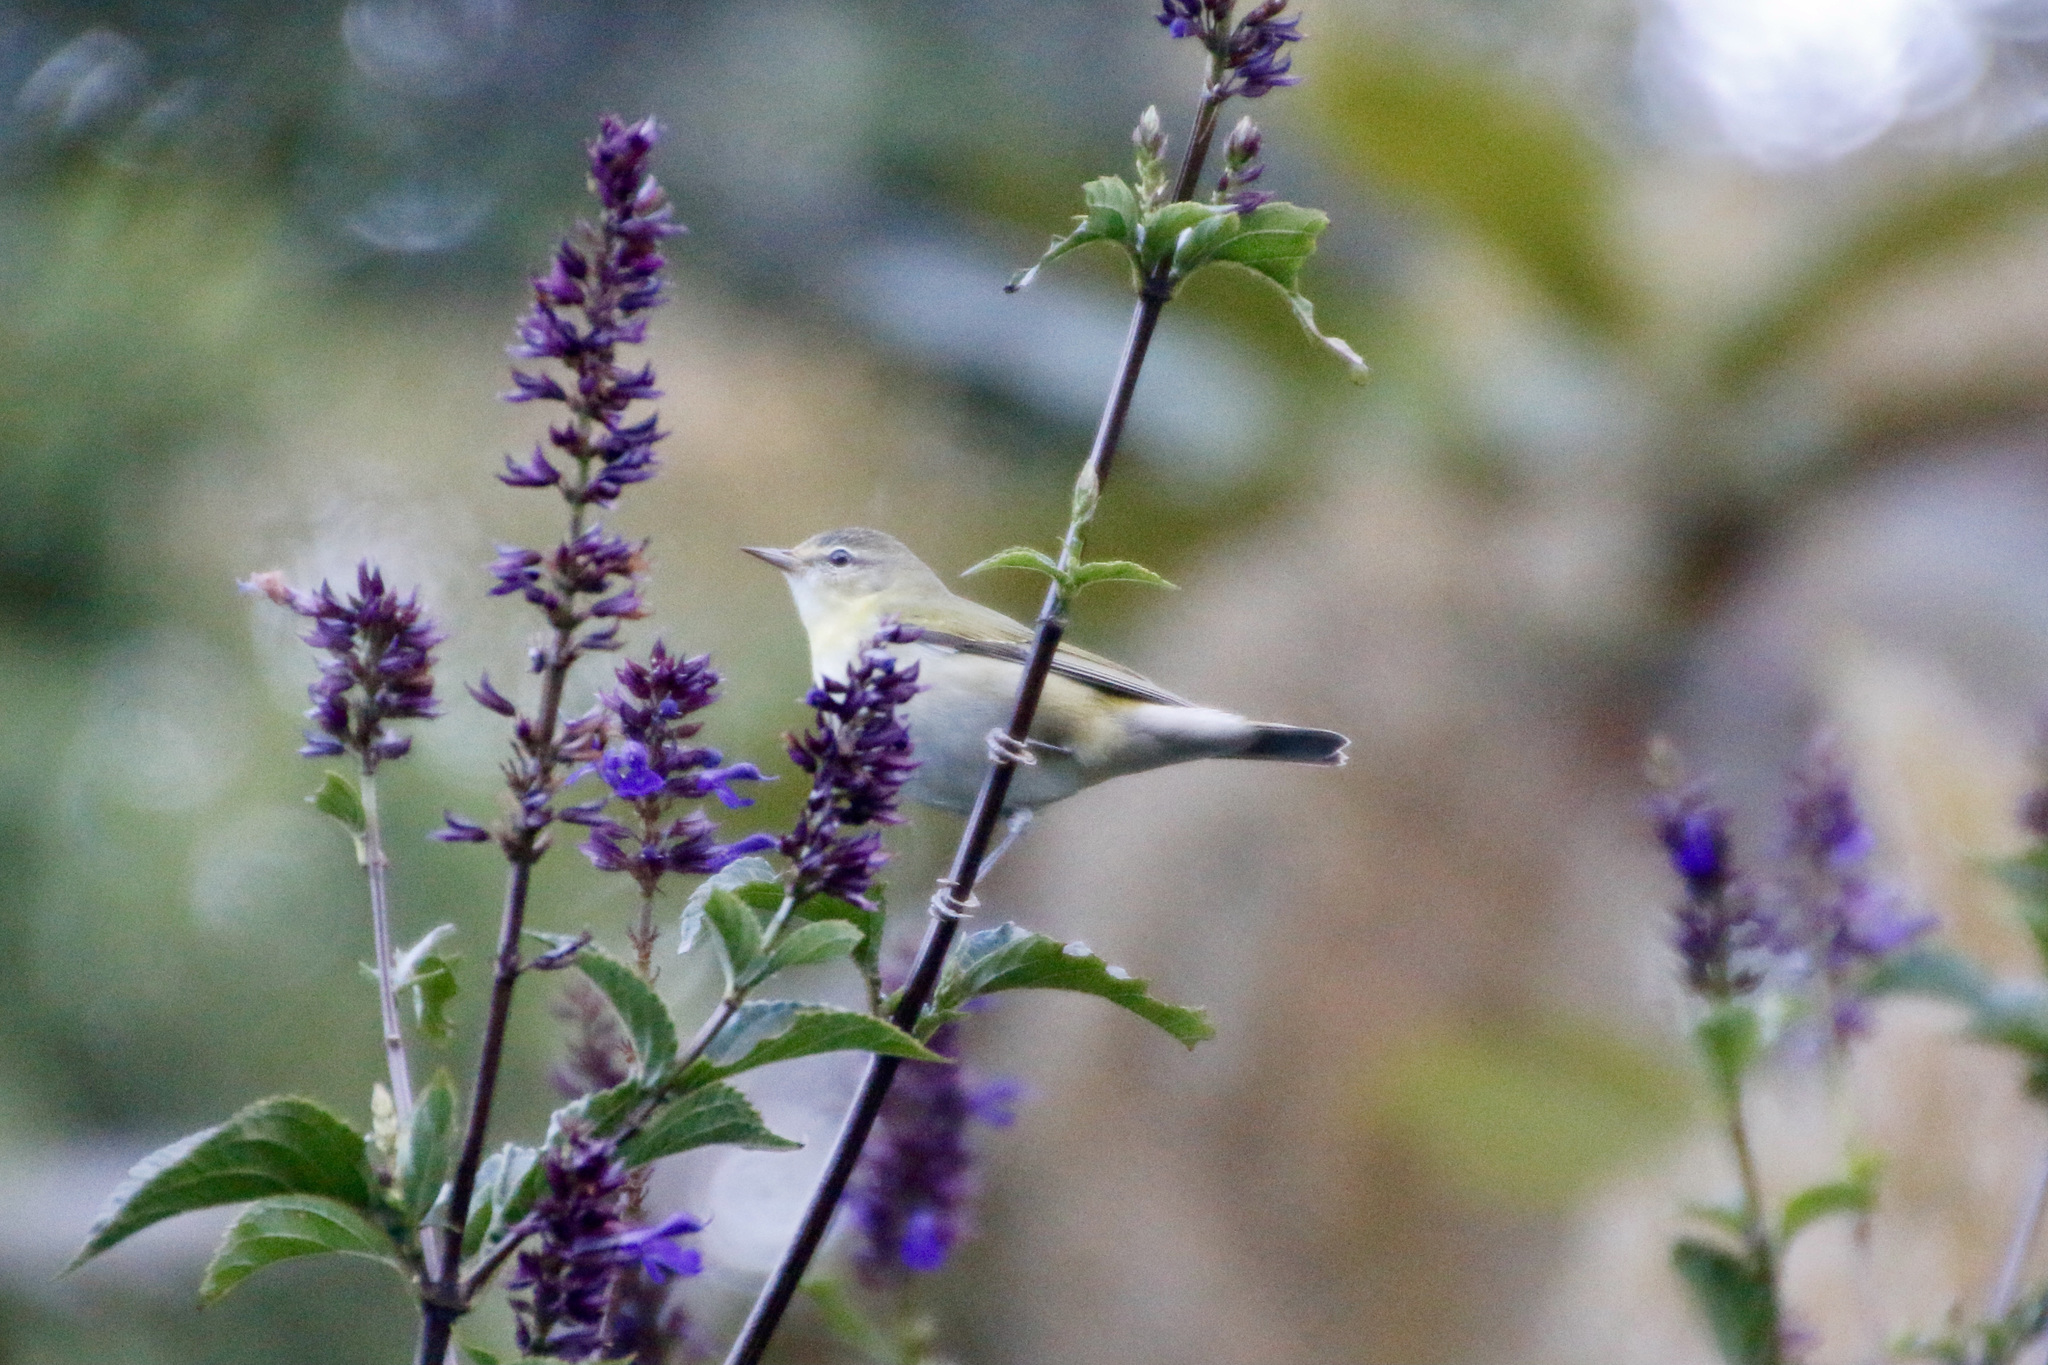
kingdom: Animalia
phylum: Chordata
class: Aves
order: Passeriformes
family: Parulidae
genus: Leiothlypis
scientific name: Leiothlypis peregrina
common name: Tennessee warbler
